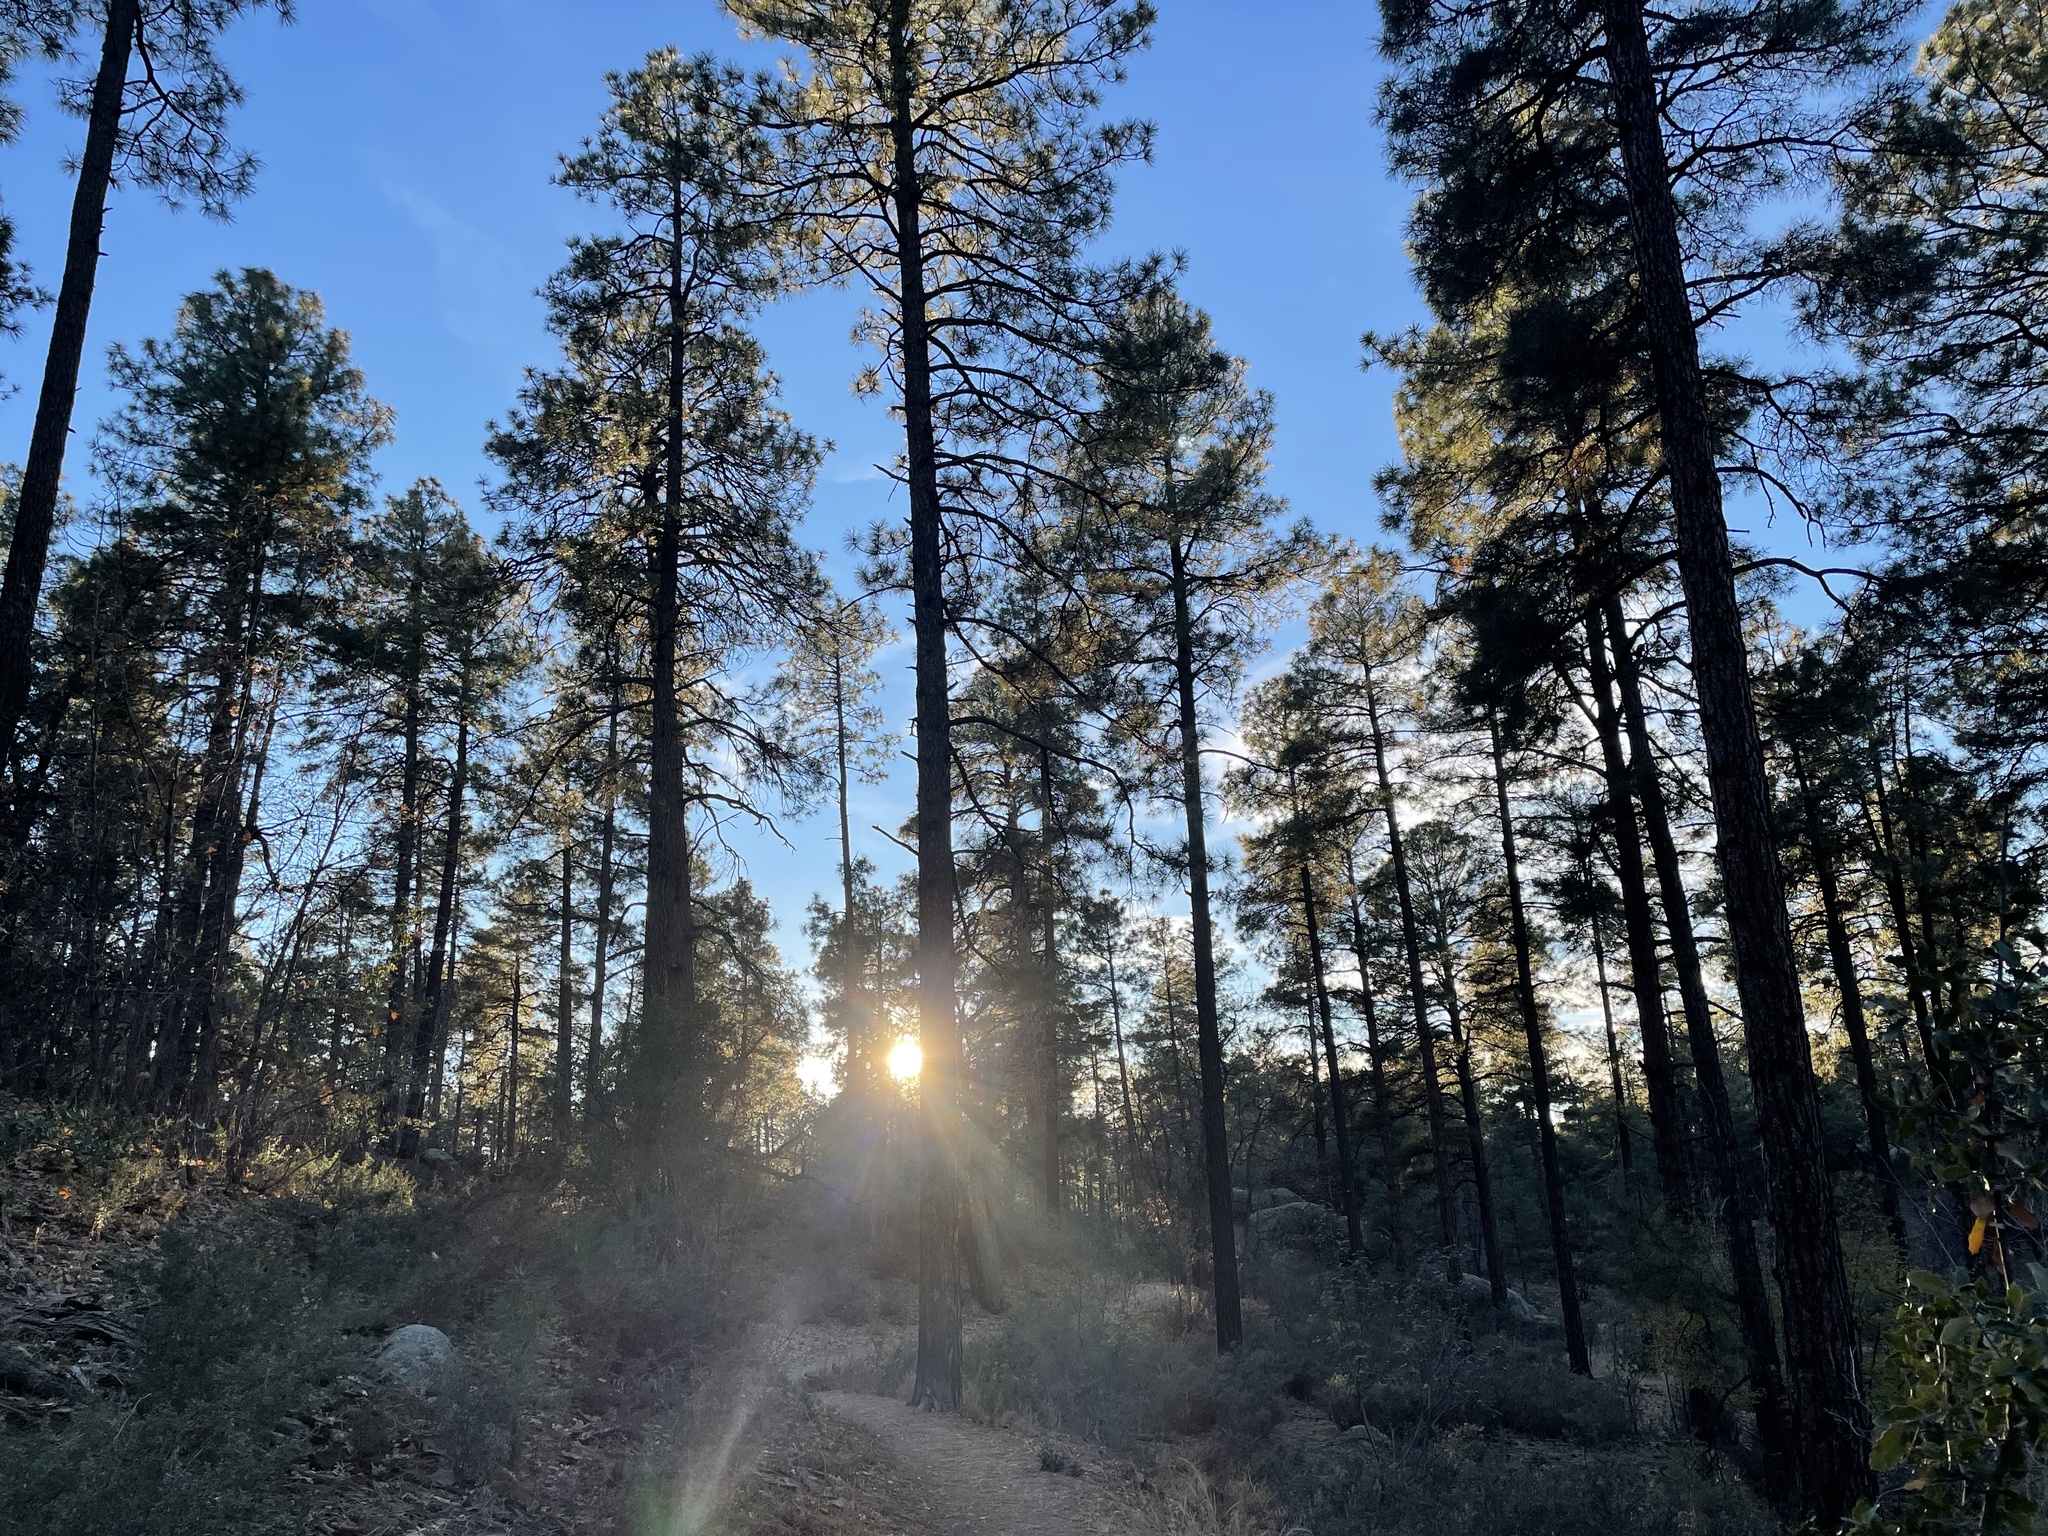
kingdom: Plantae
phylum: Tracheophyta
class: Pinopsida
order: Pinales
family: Pinaceae
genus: Pinus
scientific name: Pinus ponderosa
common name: Western yellow-pine
